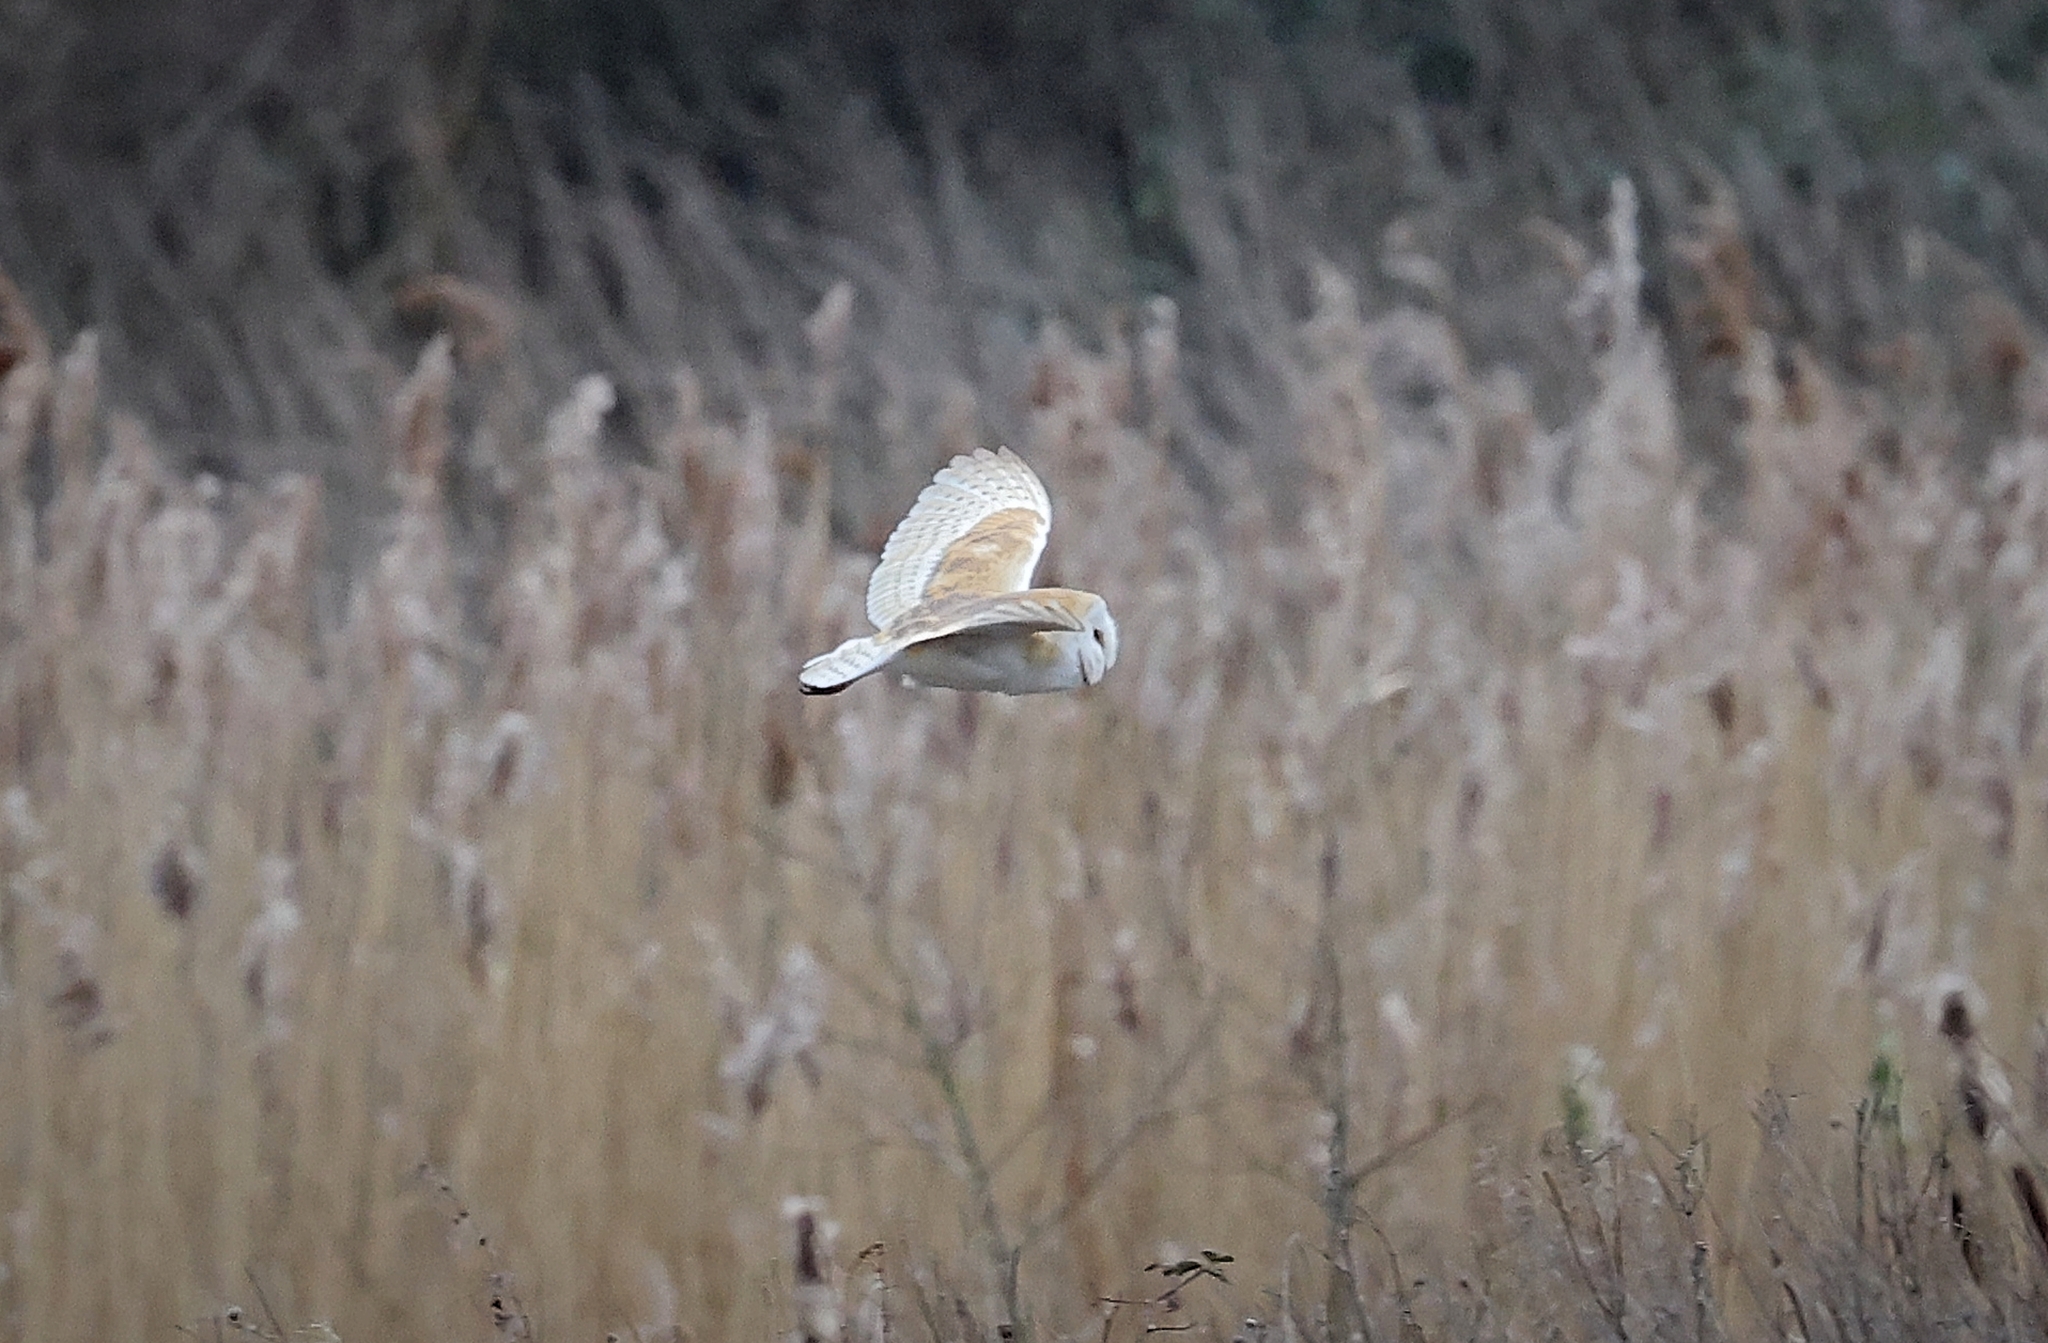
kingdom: Animalia
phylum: Chordata
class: Aves
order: Strigiformes
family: Tytonidae
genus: Tyto
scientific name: Tyto alba
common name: Barn owl
